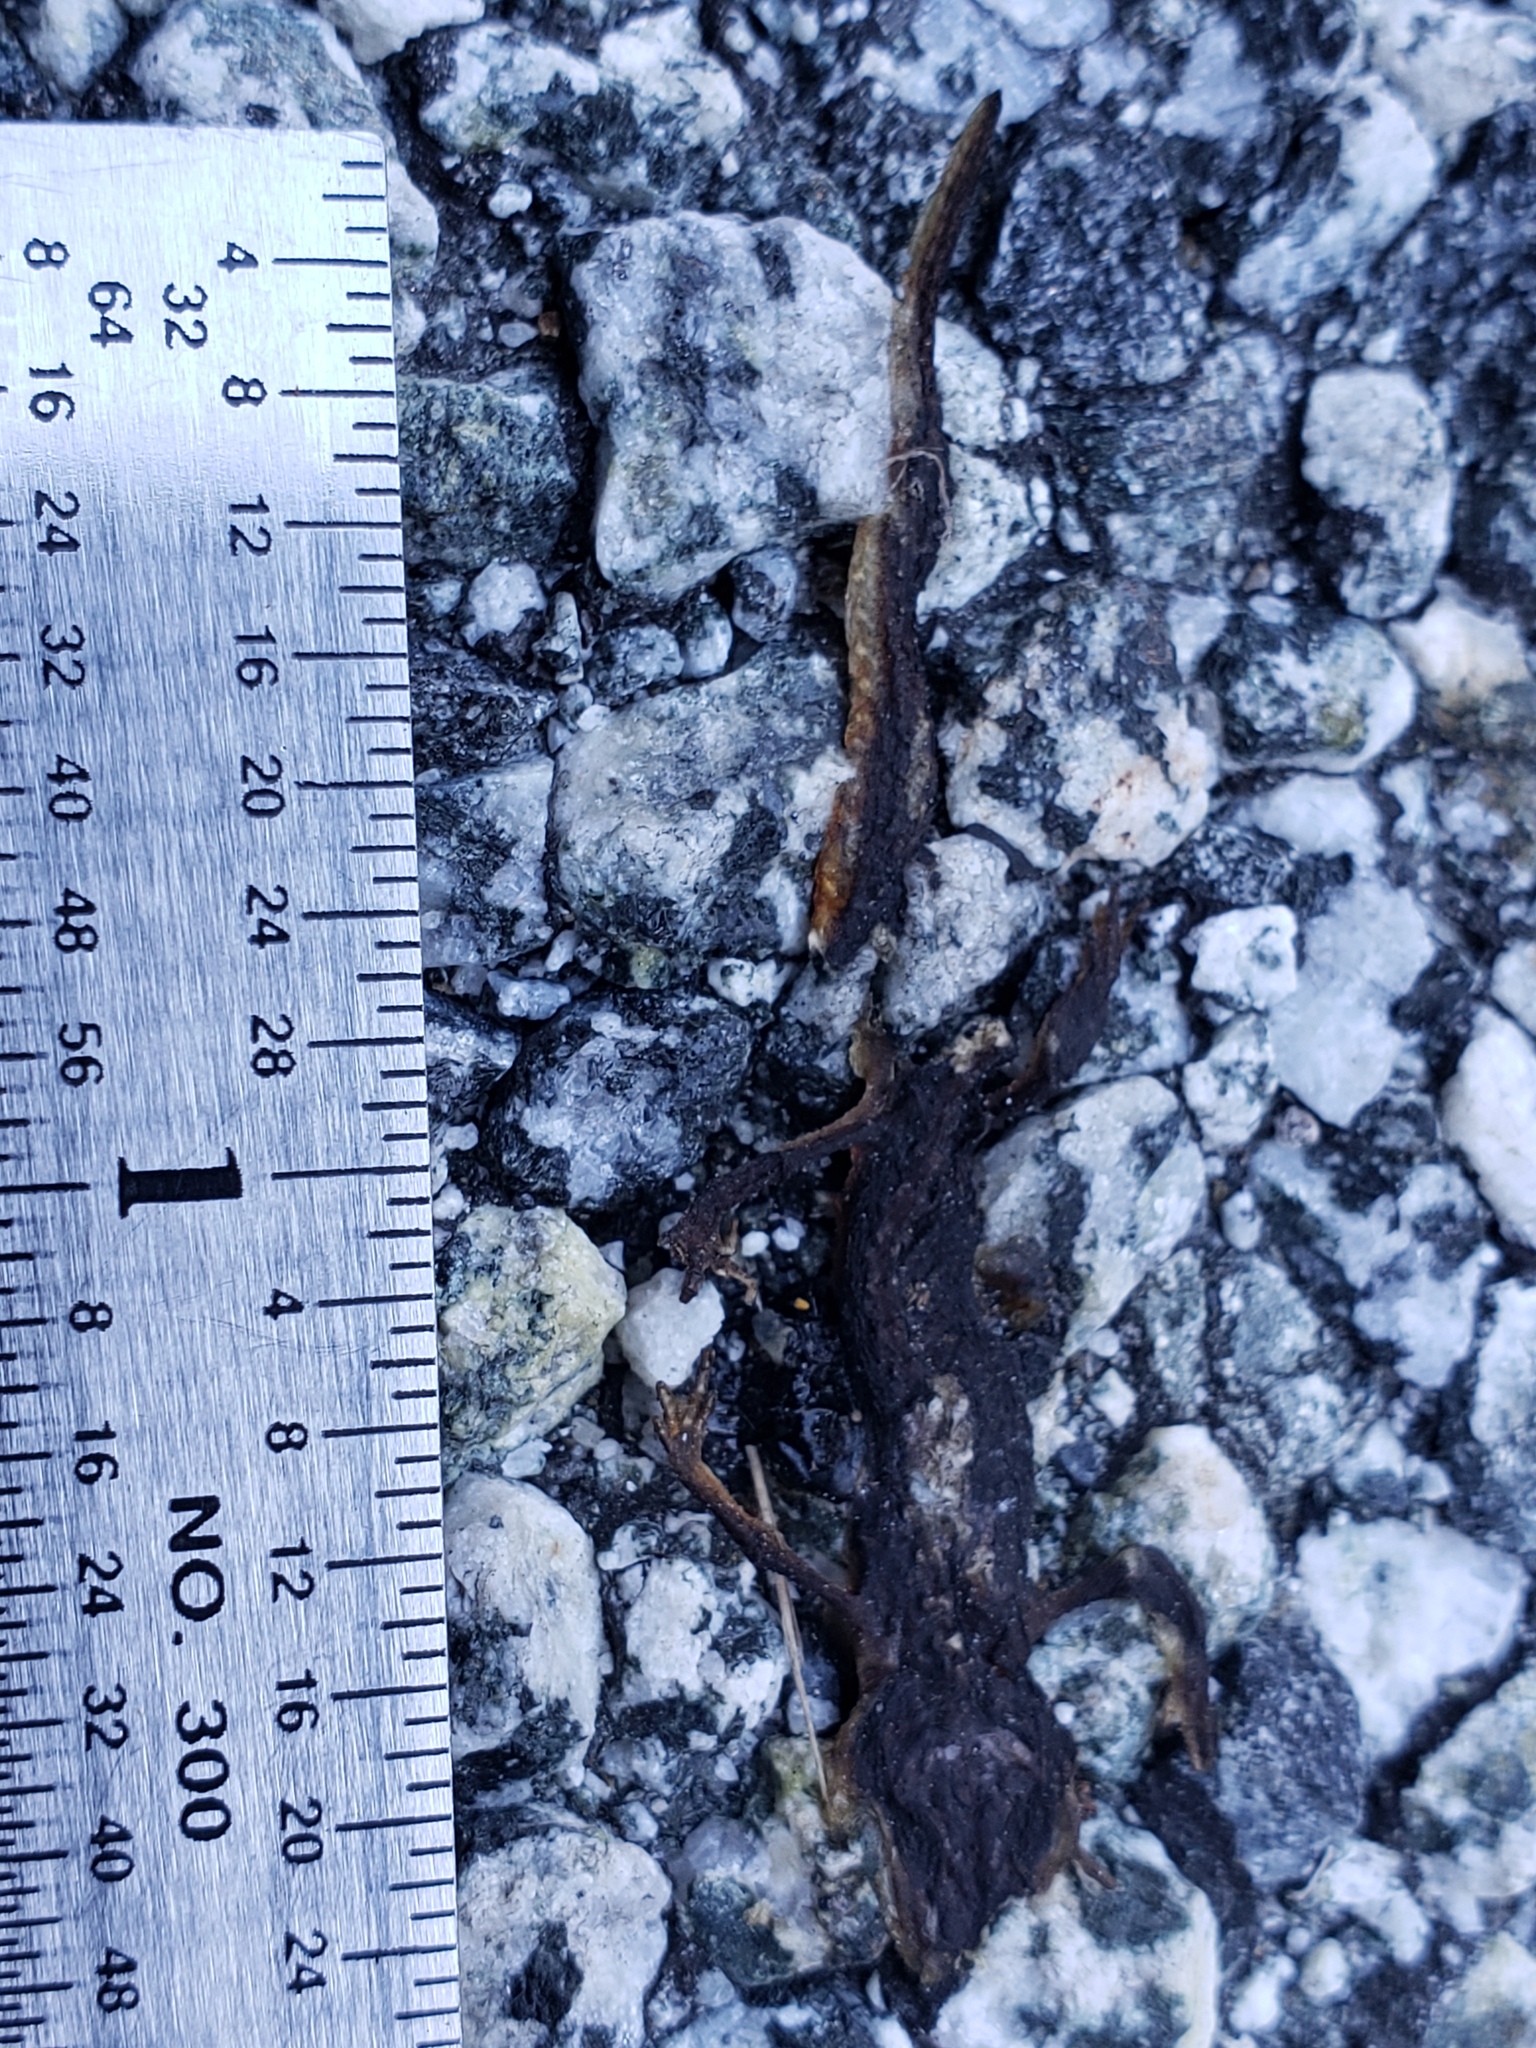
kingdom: Animalia
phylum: Chordata
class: Amphibia
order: Caudata
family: Salamandridae
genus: Taricha
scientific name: Taricha
